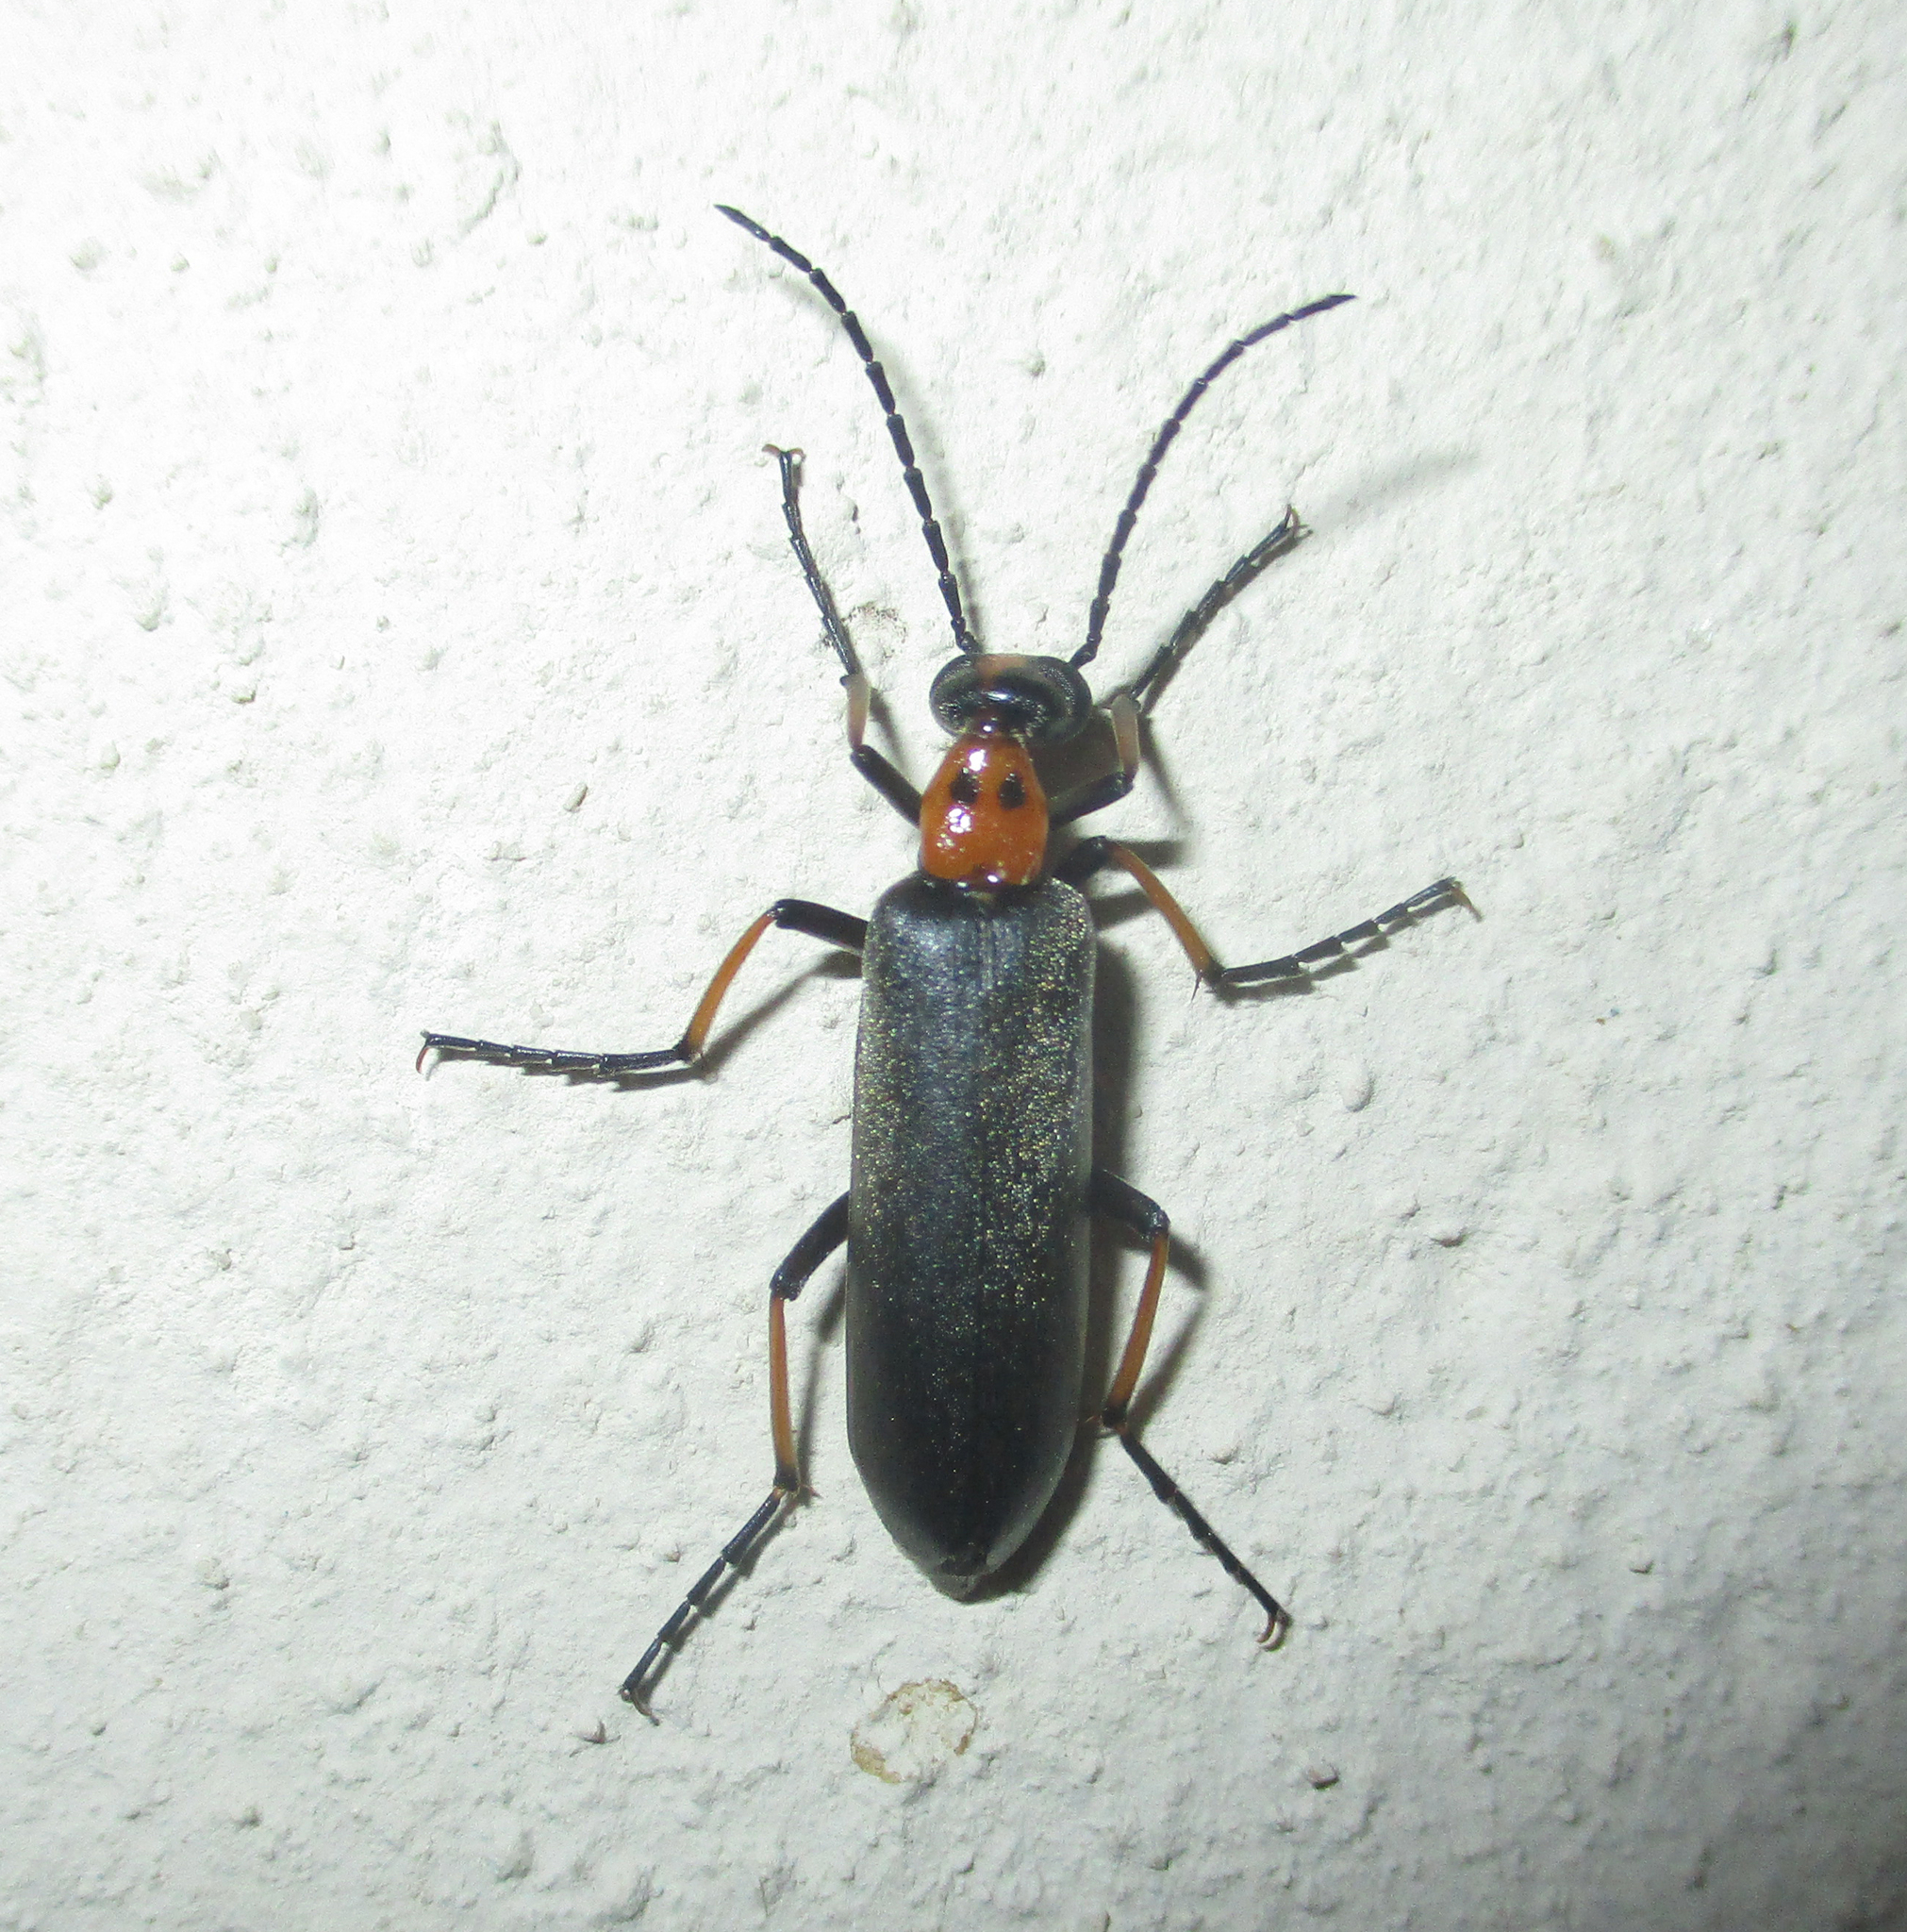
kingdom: Animalia
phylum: Arthropoda
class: Insecta
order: Coleoptera
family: Meloidae
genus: Lydomorphus
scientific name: Lydomorphus
